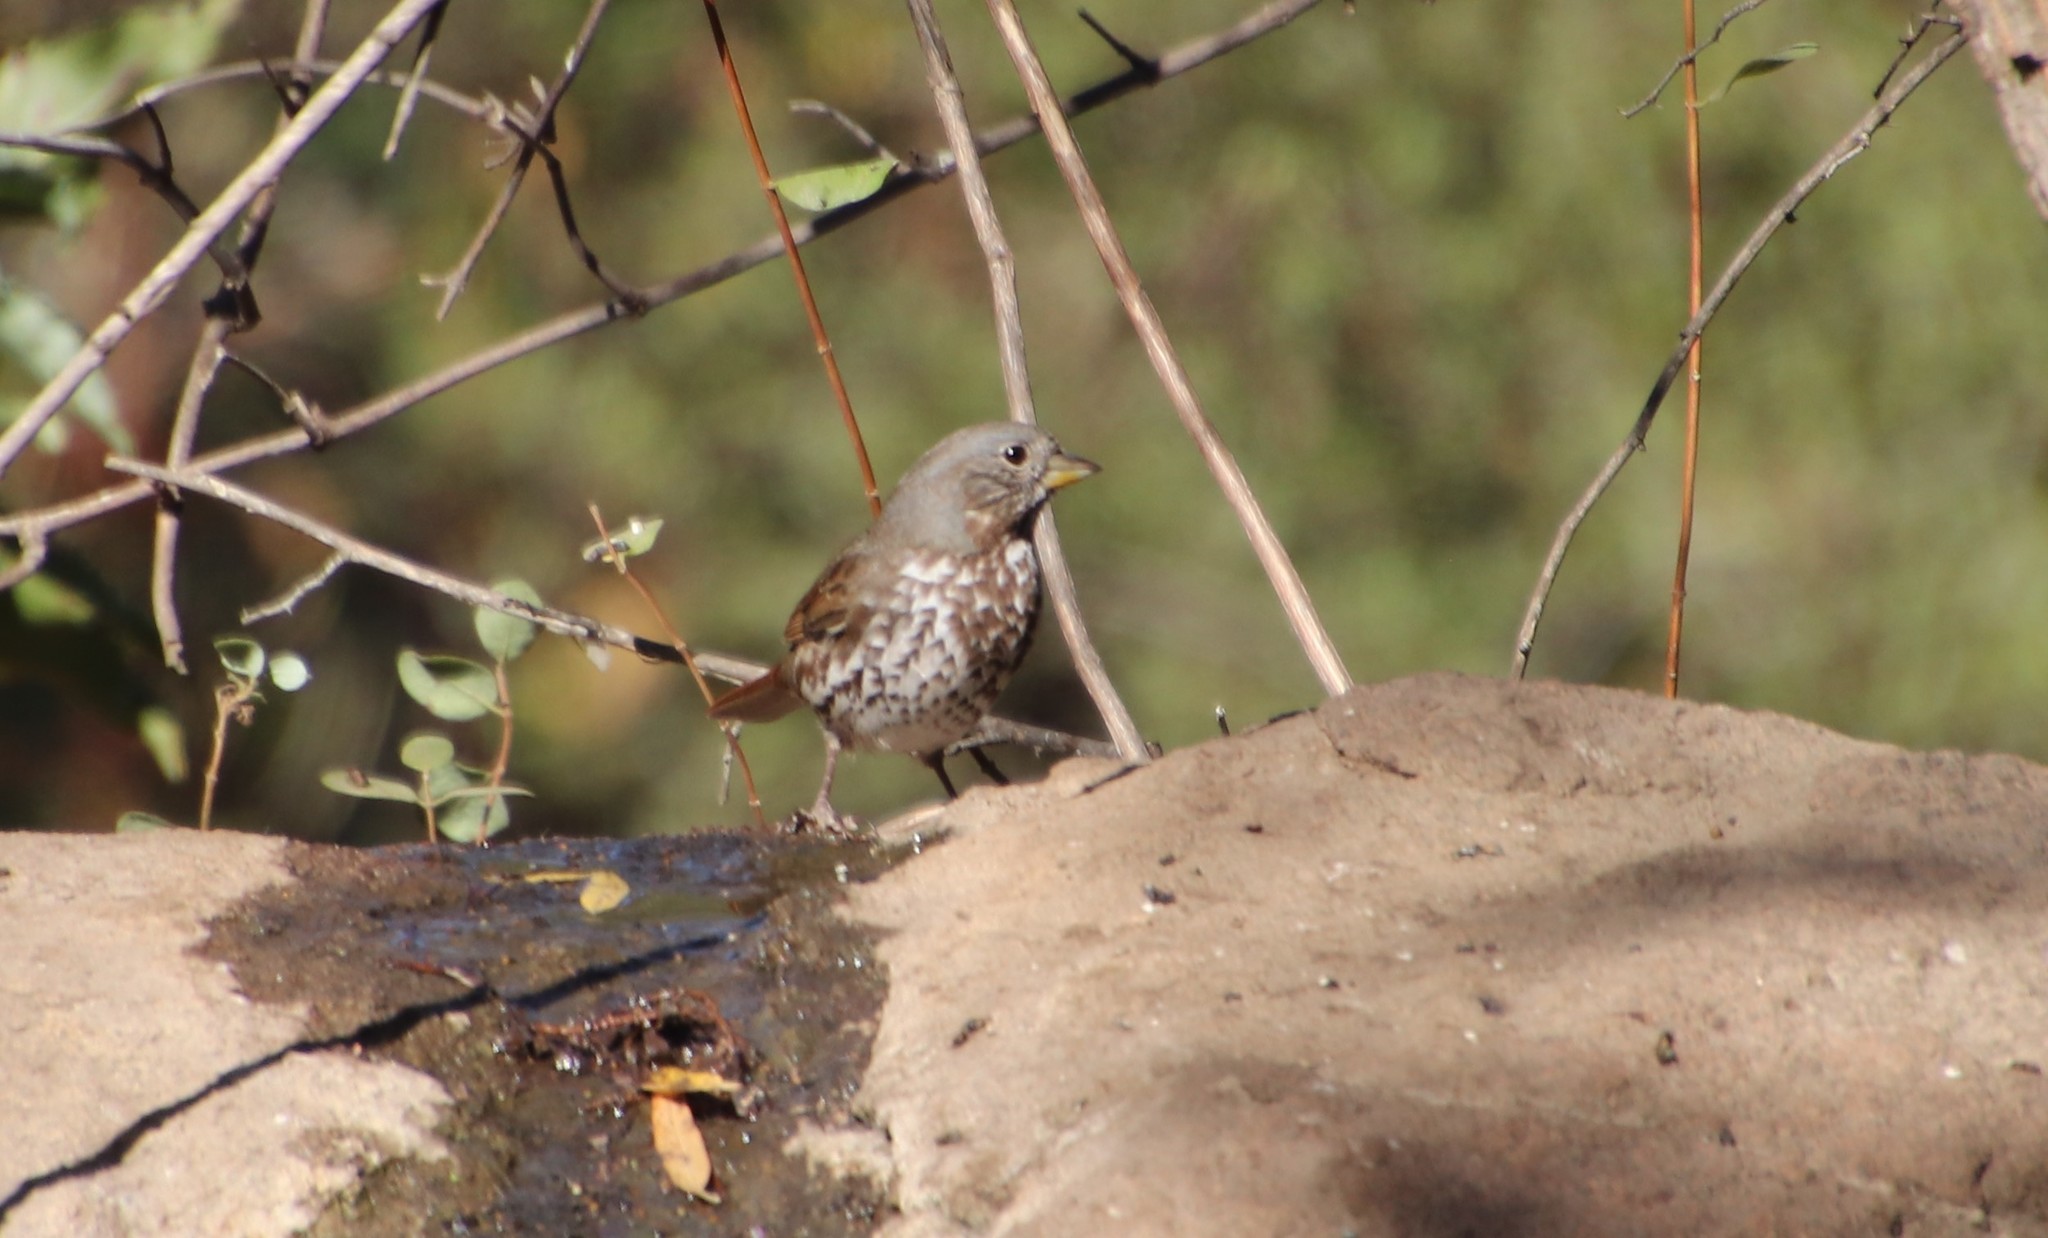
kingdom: Animalia
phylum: Chordata
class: Aves
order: Passeriformes
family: Passerellidae
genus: Passerella
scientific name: Passerella iliaca
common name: Fox sparrow
